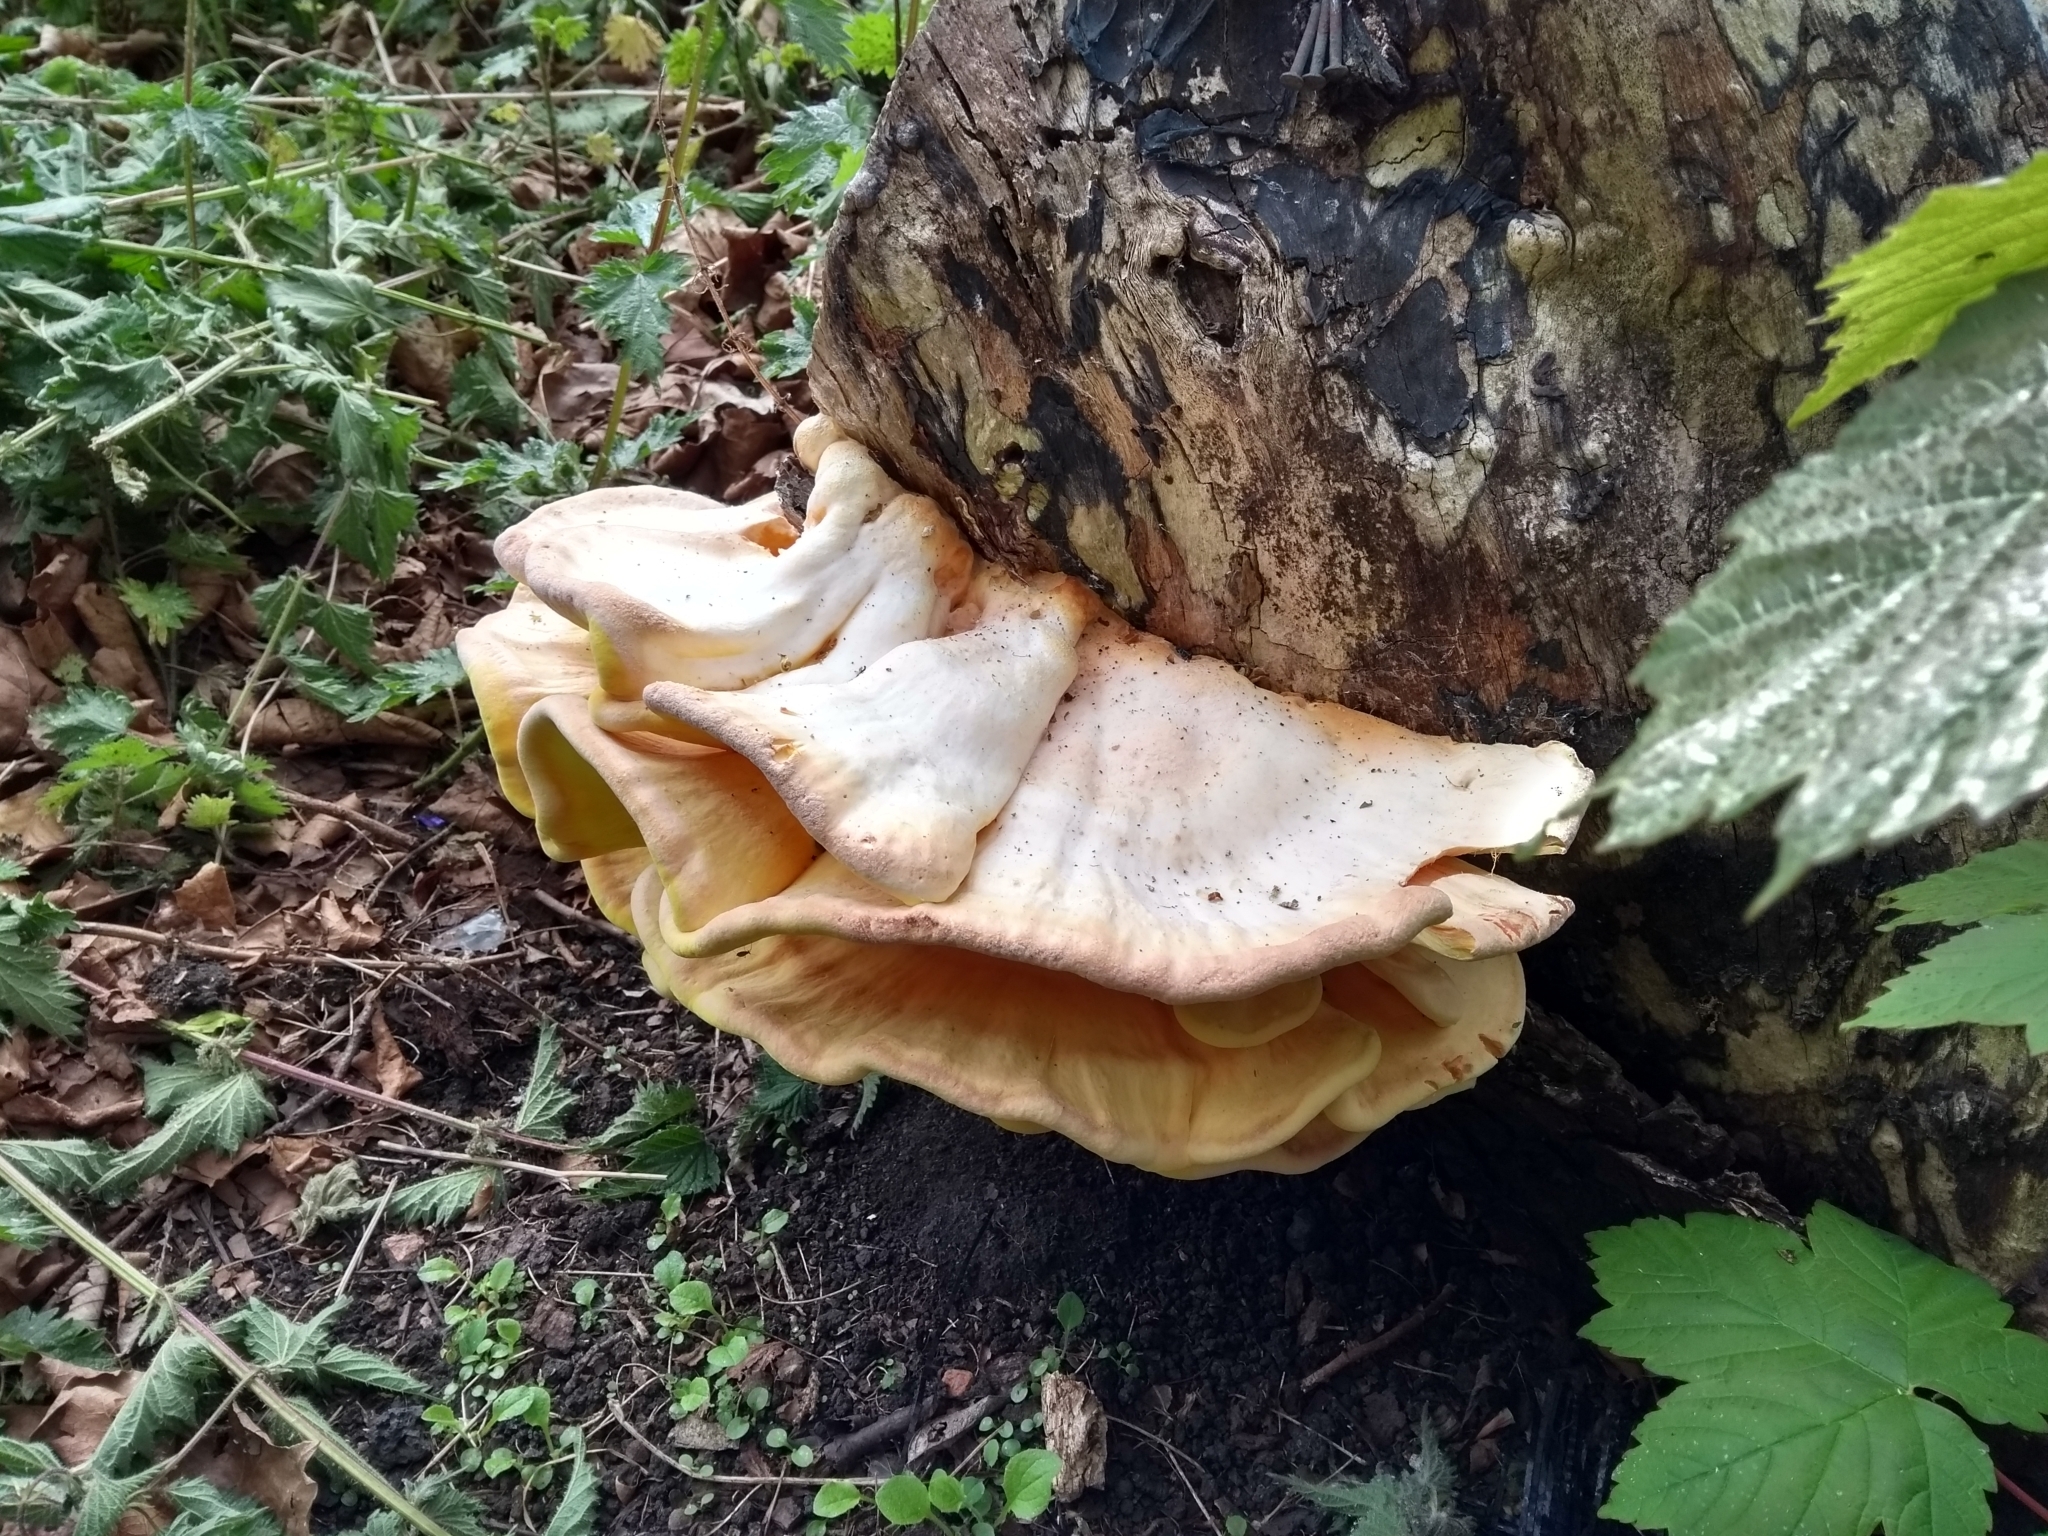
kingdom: Fungi
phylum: Basidiomycota
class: Agaricomycetes
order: Polyporales
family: Laetiporaceae
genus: Laetiporus
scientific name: Laetiporus sulphureus
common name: Chicken of the woods
